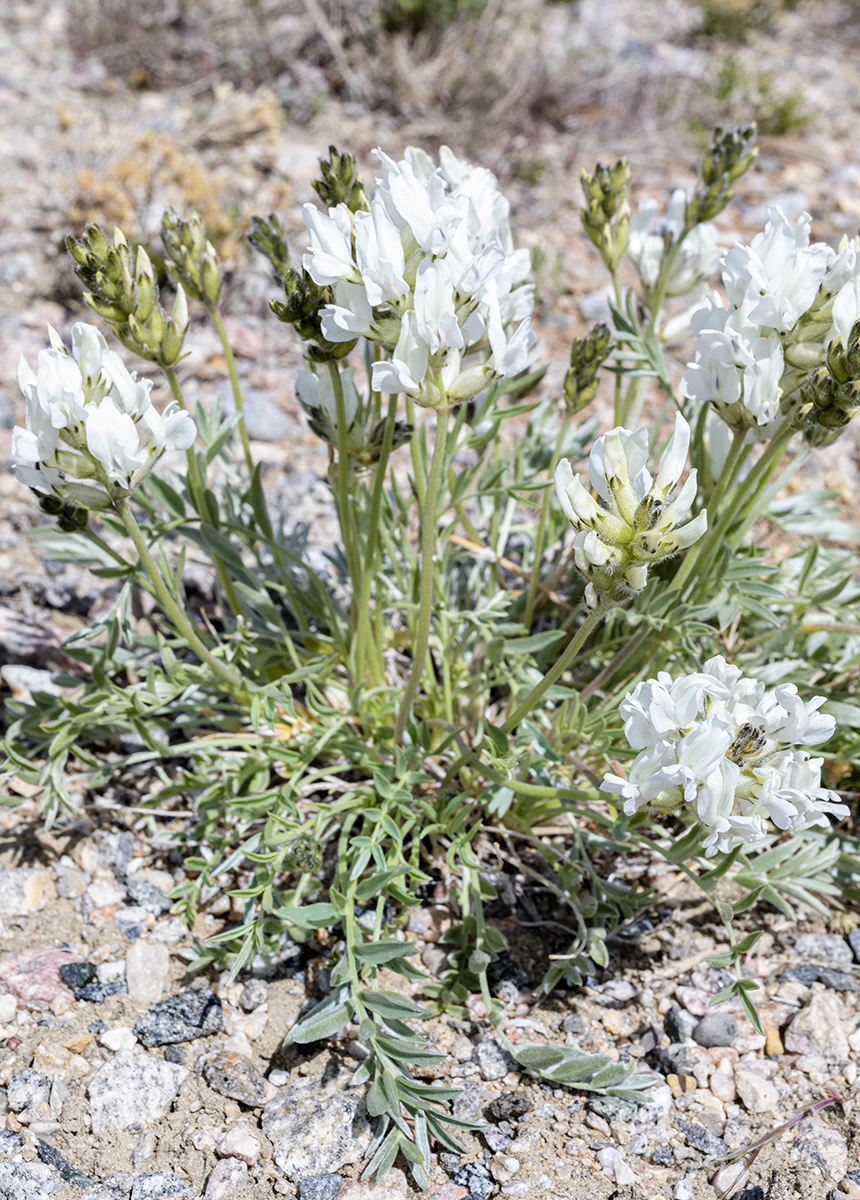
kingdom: Plantae
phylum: Tracheophyta
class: Magnoliopsida
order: Fabales
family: Fabaceae
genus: Oxytropis
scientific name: Oxytropis sericea
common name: Silky locoweed
